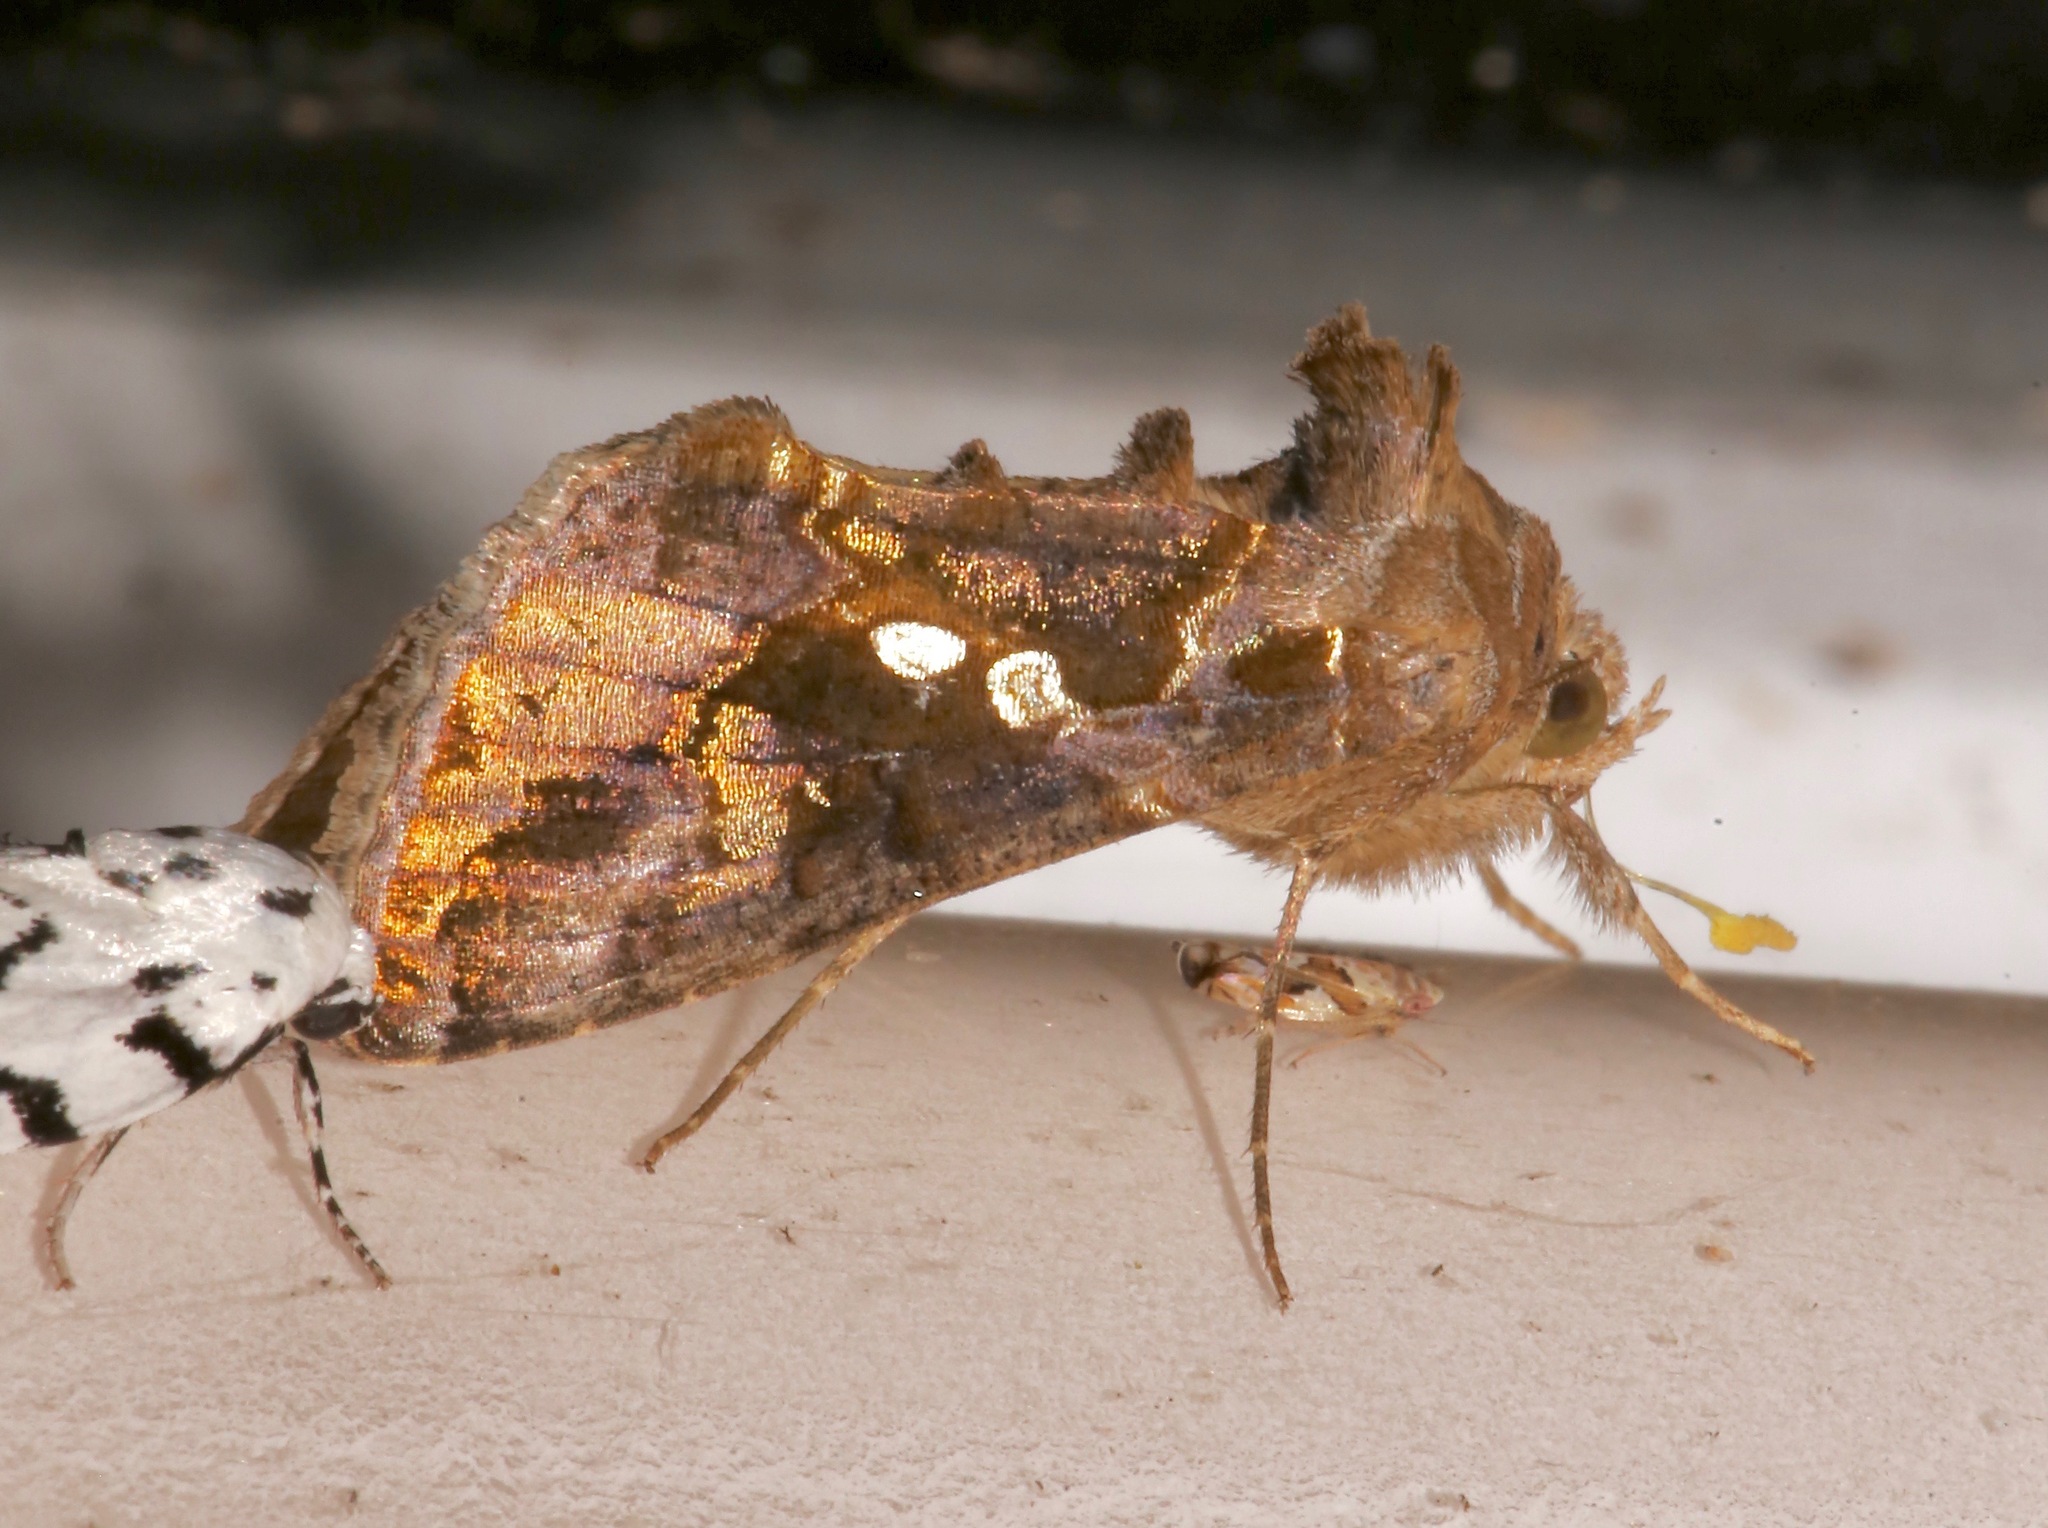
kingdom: Animalia
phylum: Arthropoda
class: Insecta
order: Lepidoptera
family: Noctuidae
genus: Chrysodeixis
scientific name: Chrysodeixis includens
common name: Cutworm moth
